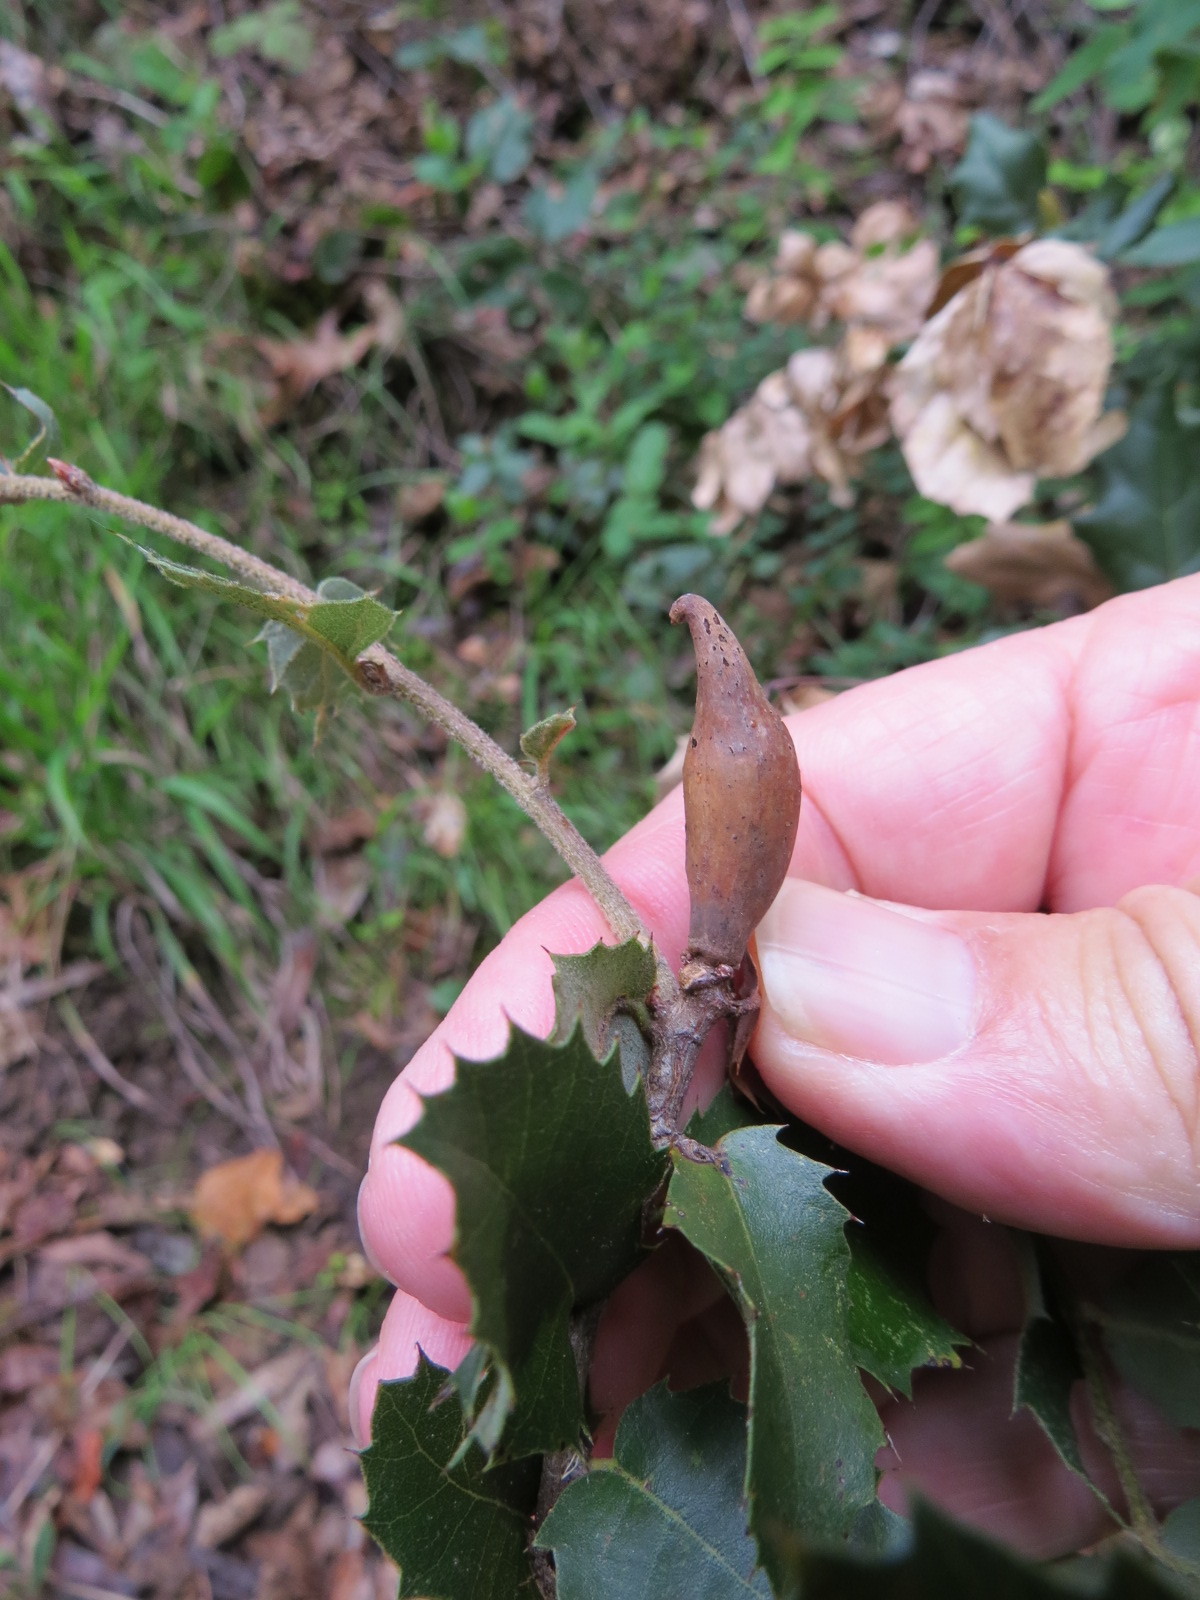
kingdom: Animalia
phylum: Arthropoda
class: Insecta
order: Hymenoptera
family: Cynipidae
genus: Heteroecus
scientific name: Heteroecus pacificus
